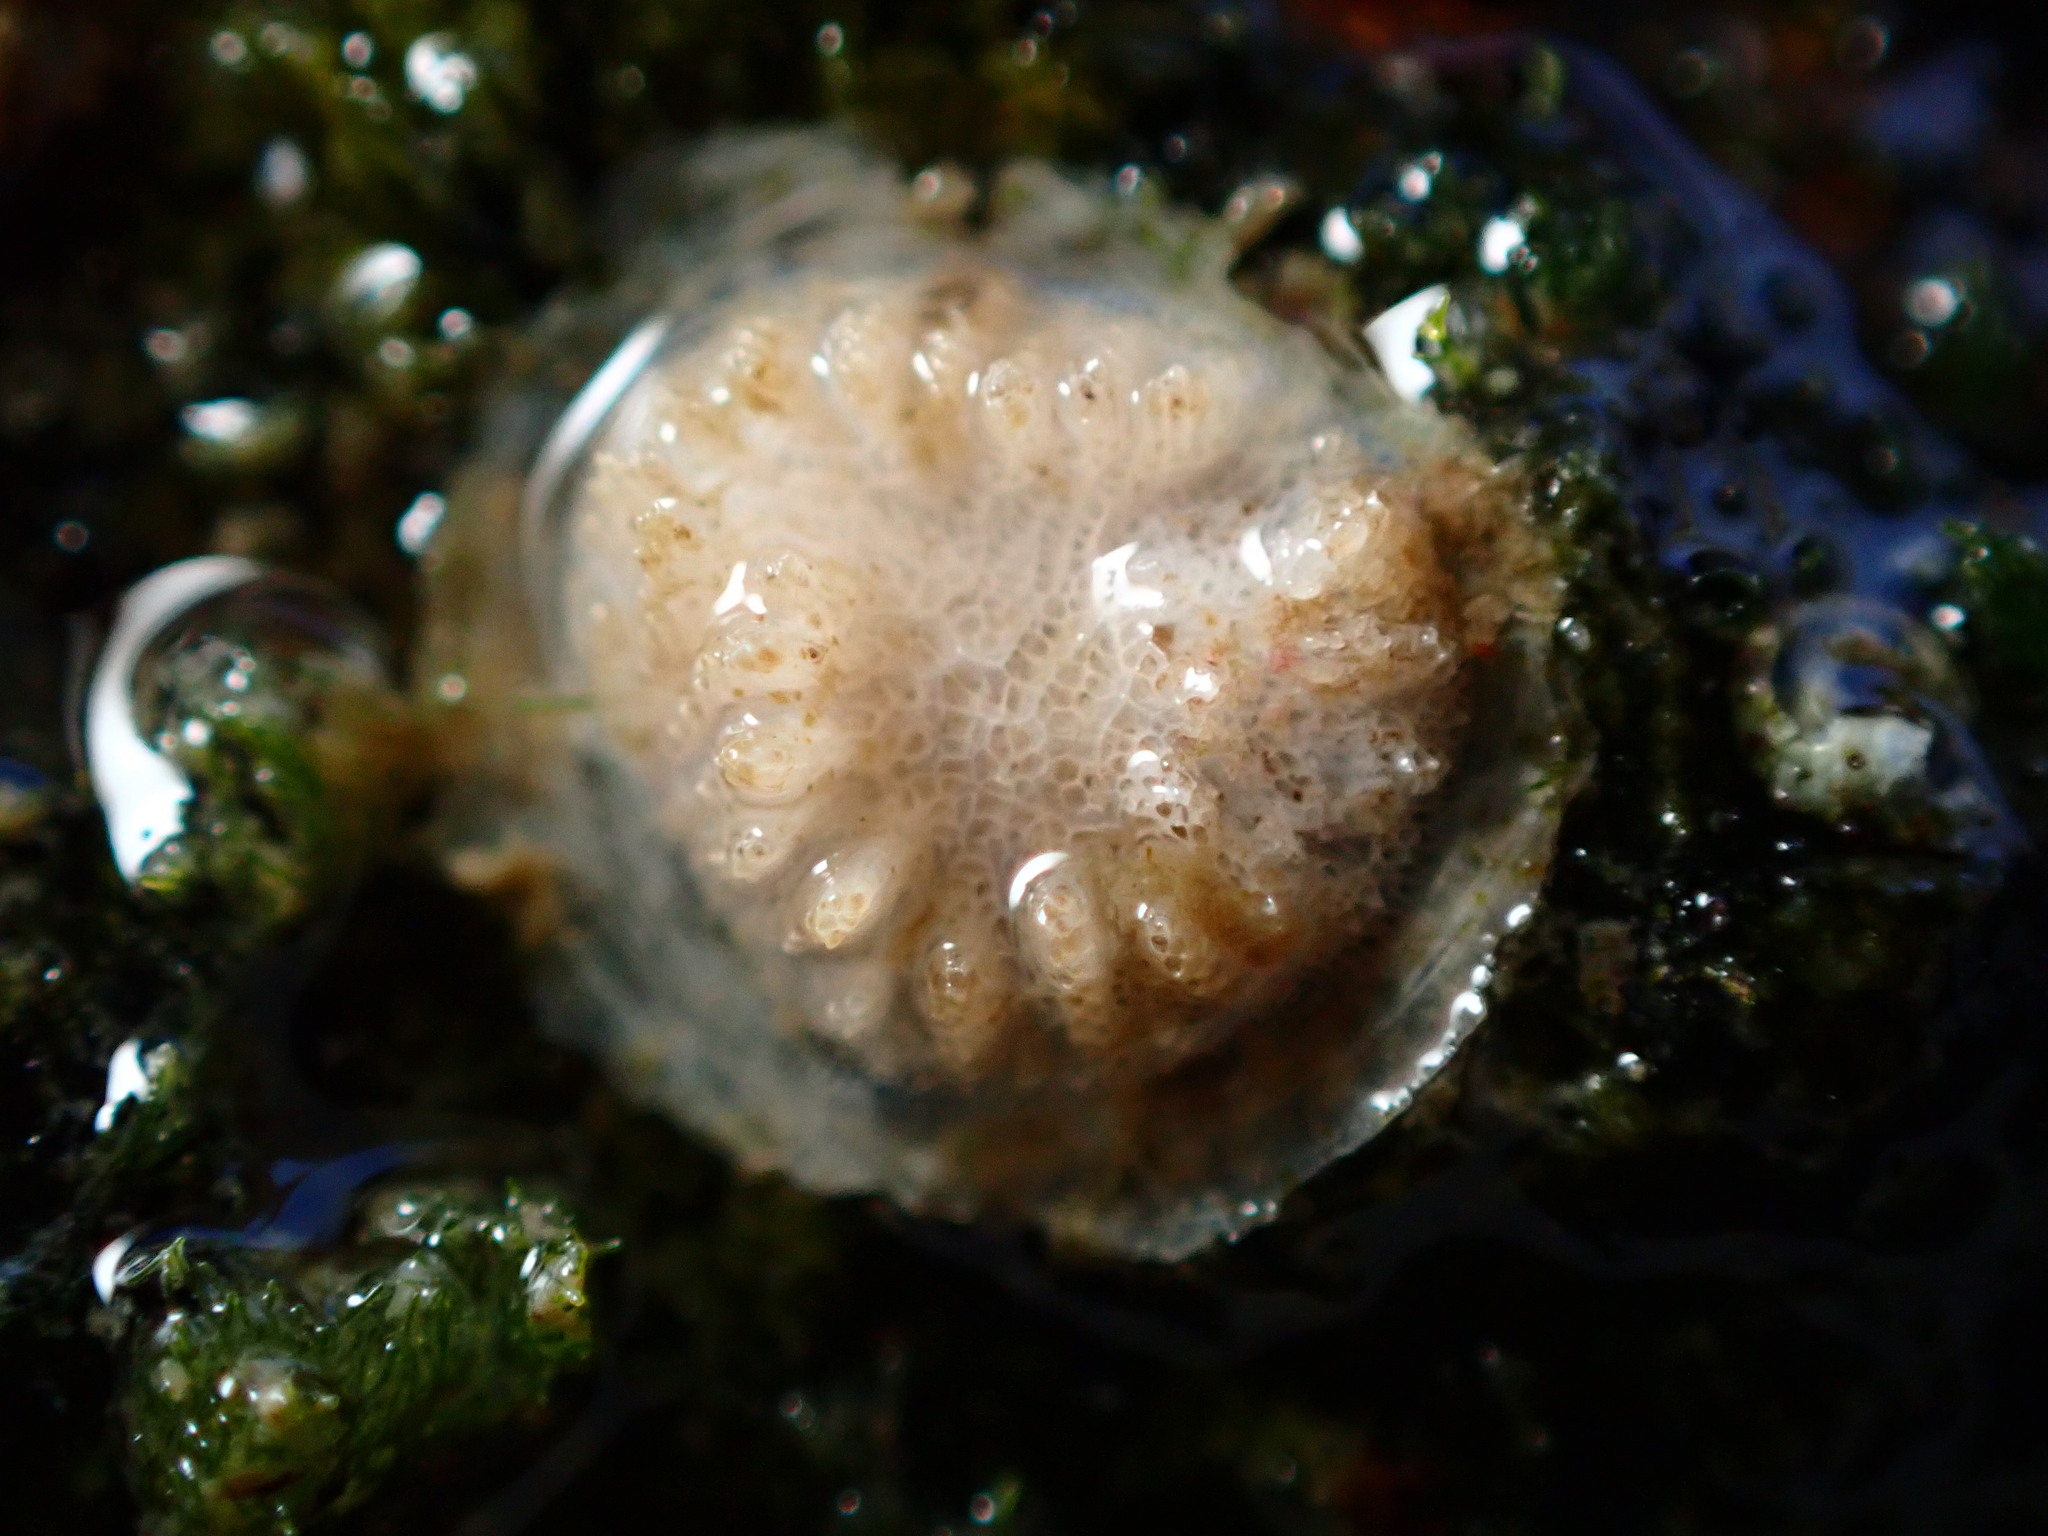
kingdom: Animalia
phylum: Bryozoa
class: Stenolaemata
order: Cyclostomatida
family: Lichenoporidae
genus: Patinella
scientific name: Patinella radiata
